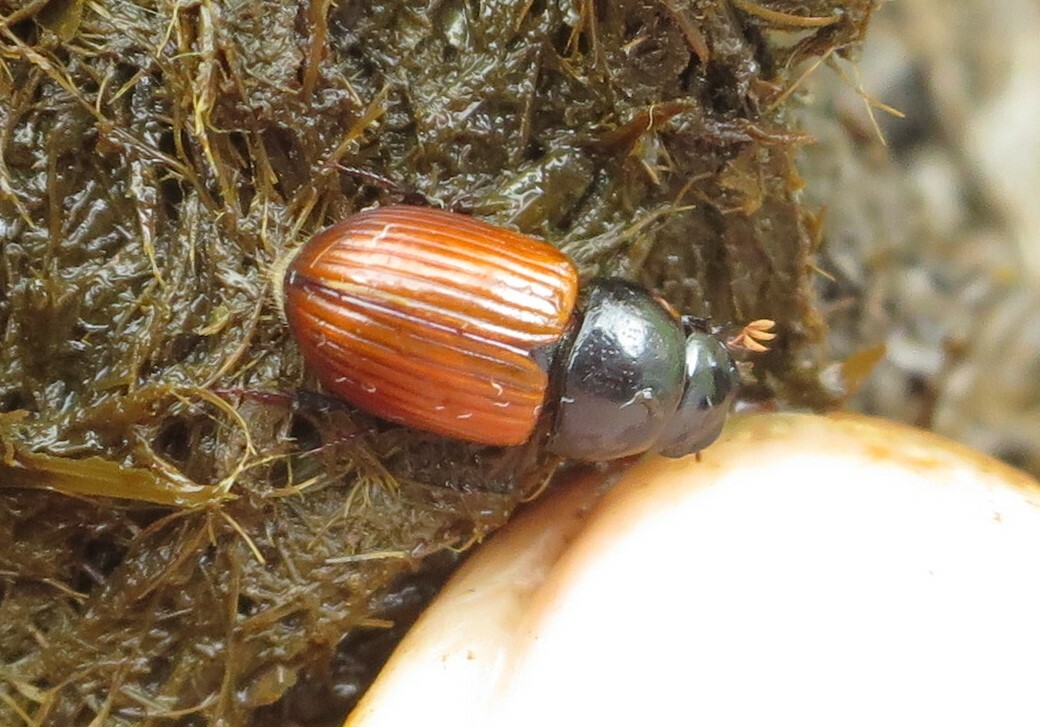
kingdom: Animalia
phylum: Arthropoda
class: Insecta
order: Coleoptera
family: Scarabaeidae
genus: Aphodius
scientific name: Aphodius fimetarius
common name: Common dung beetle
